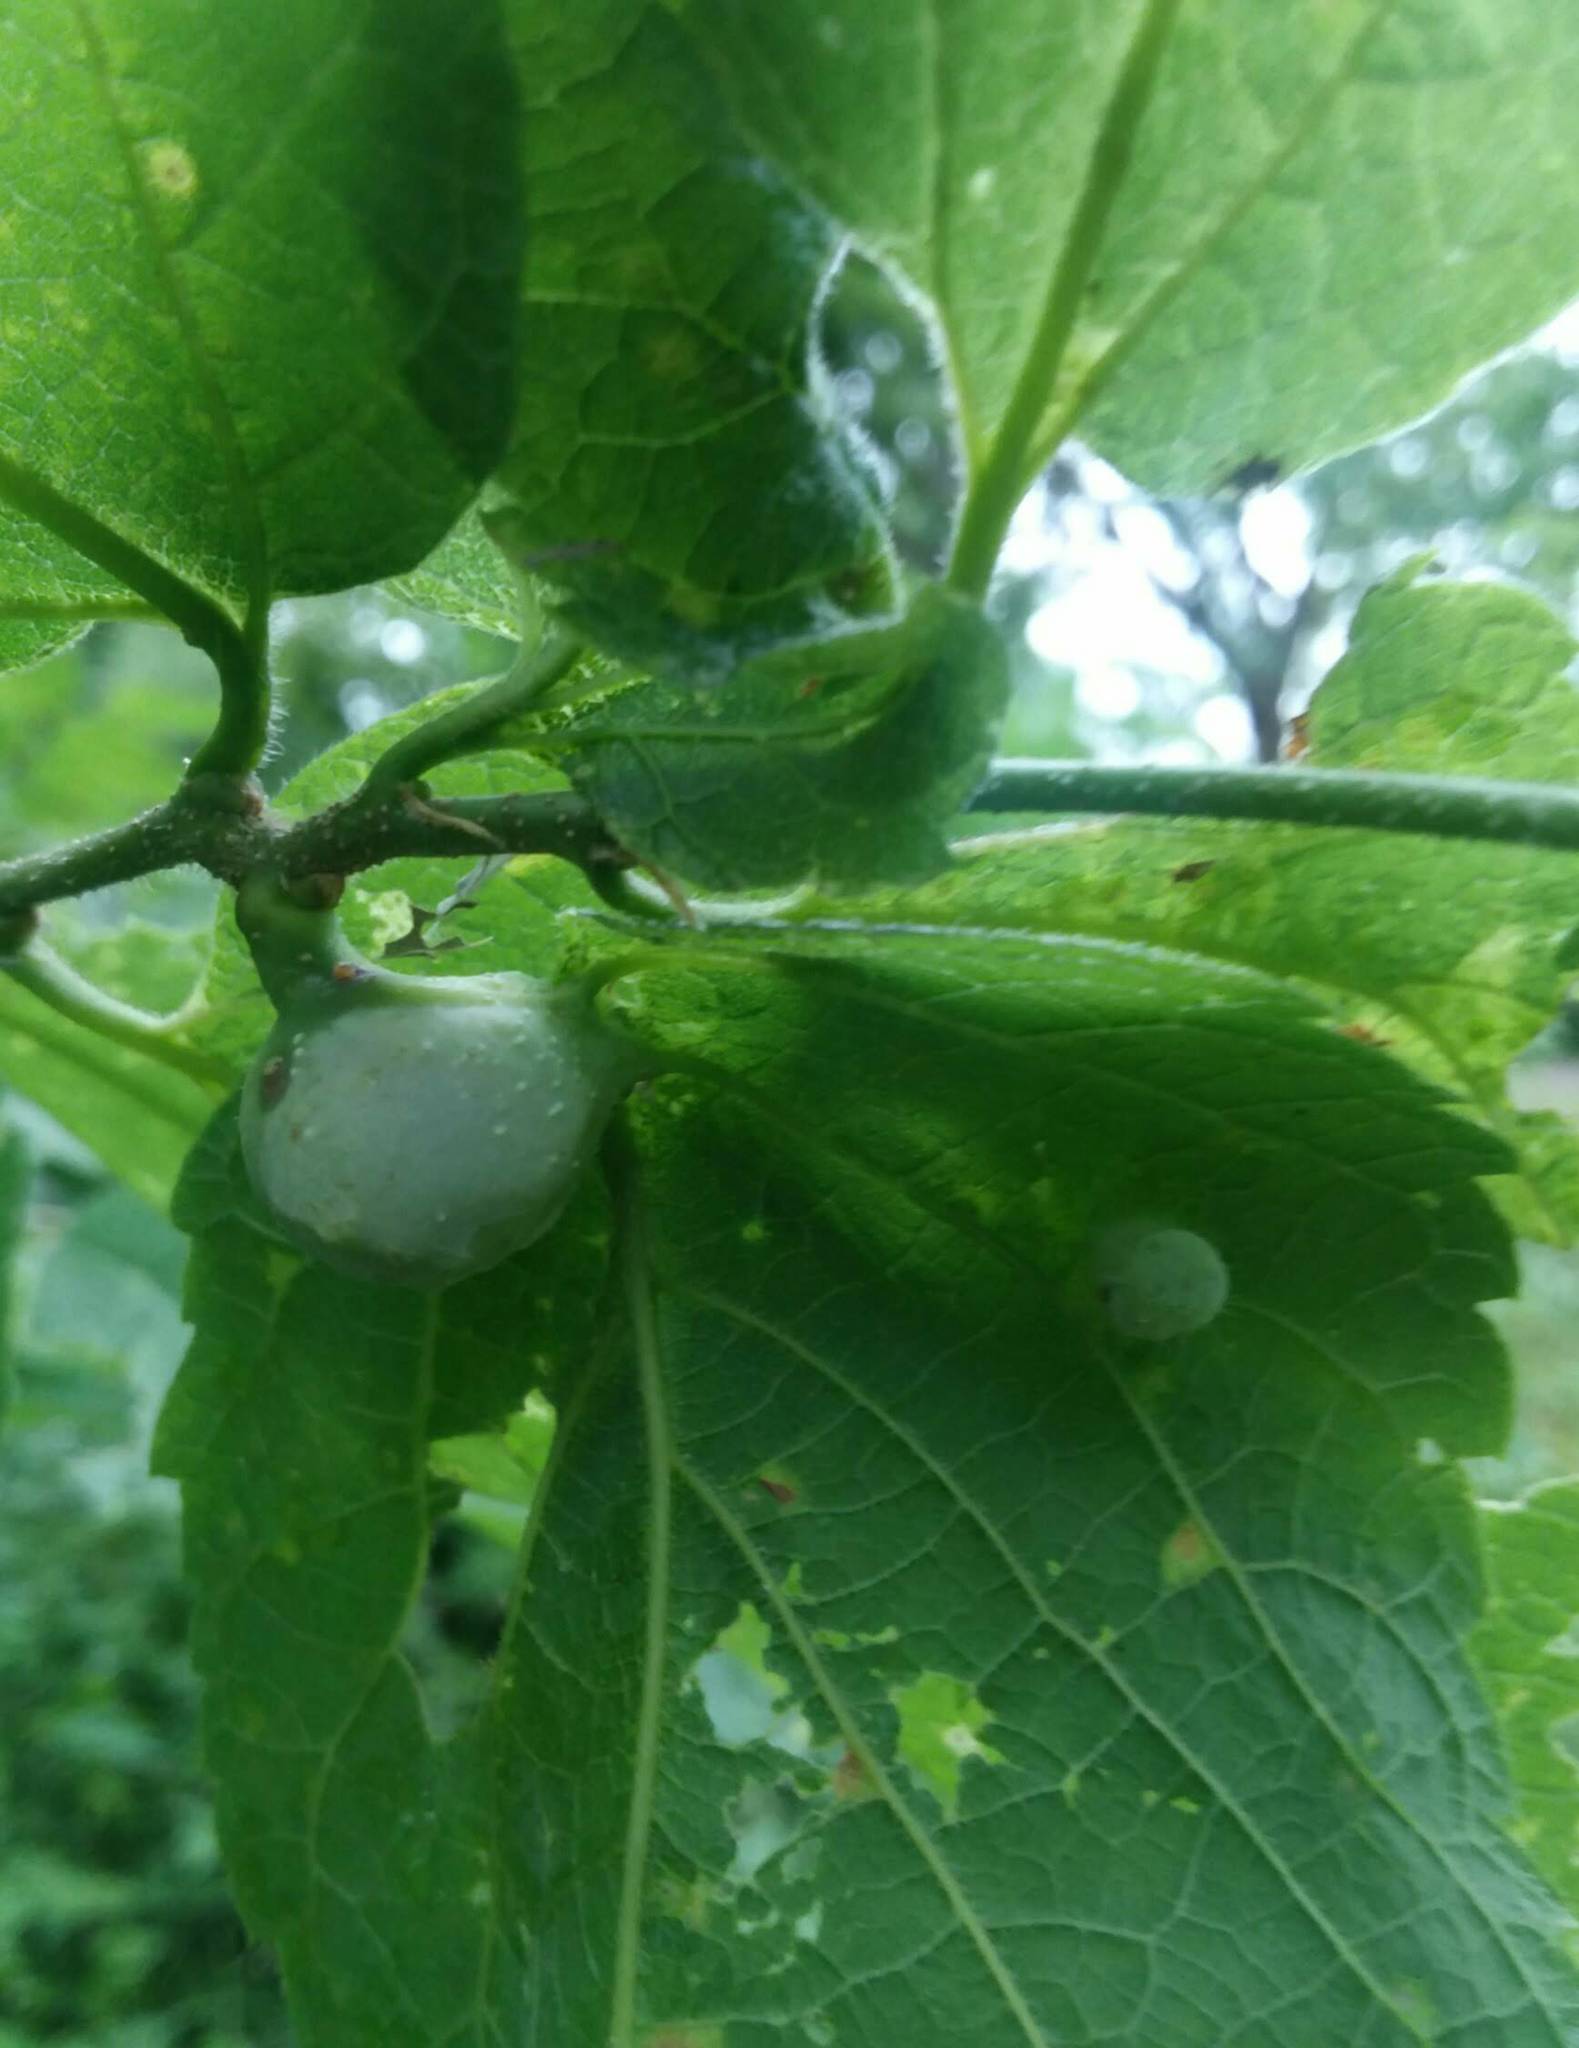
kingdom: Animalia
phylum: Arthropoda
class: Insecta
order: Hemiptera
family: Aphalaridae
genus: Pachypsylla
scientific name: Pachypsylla venusta
